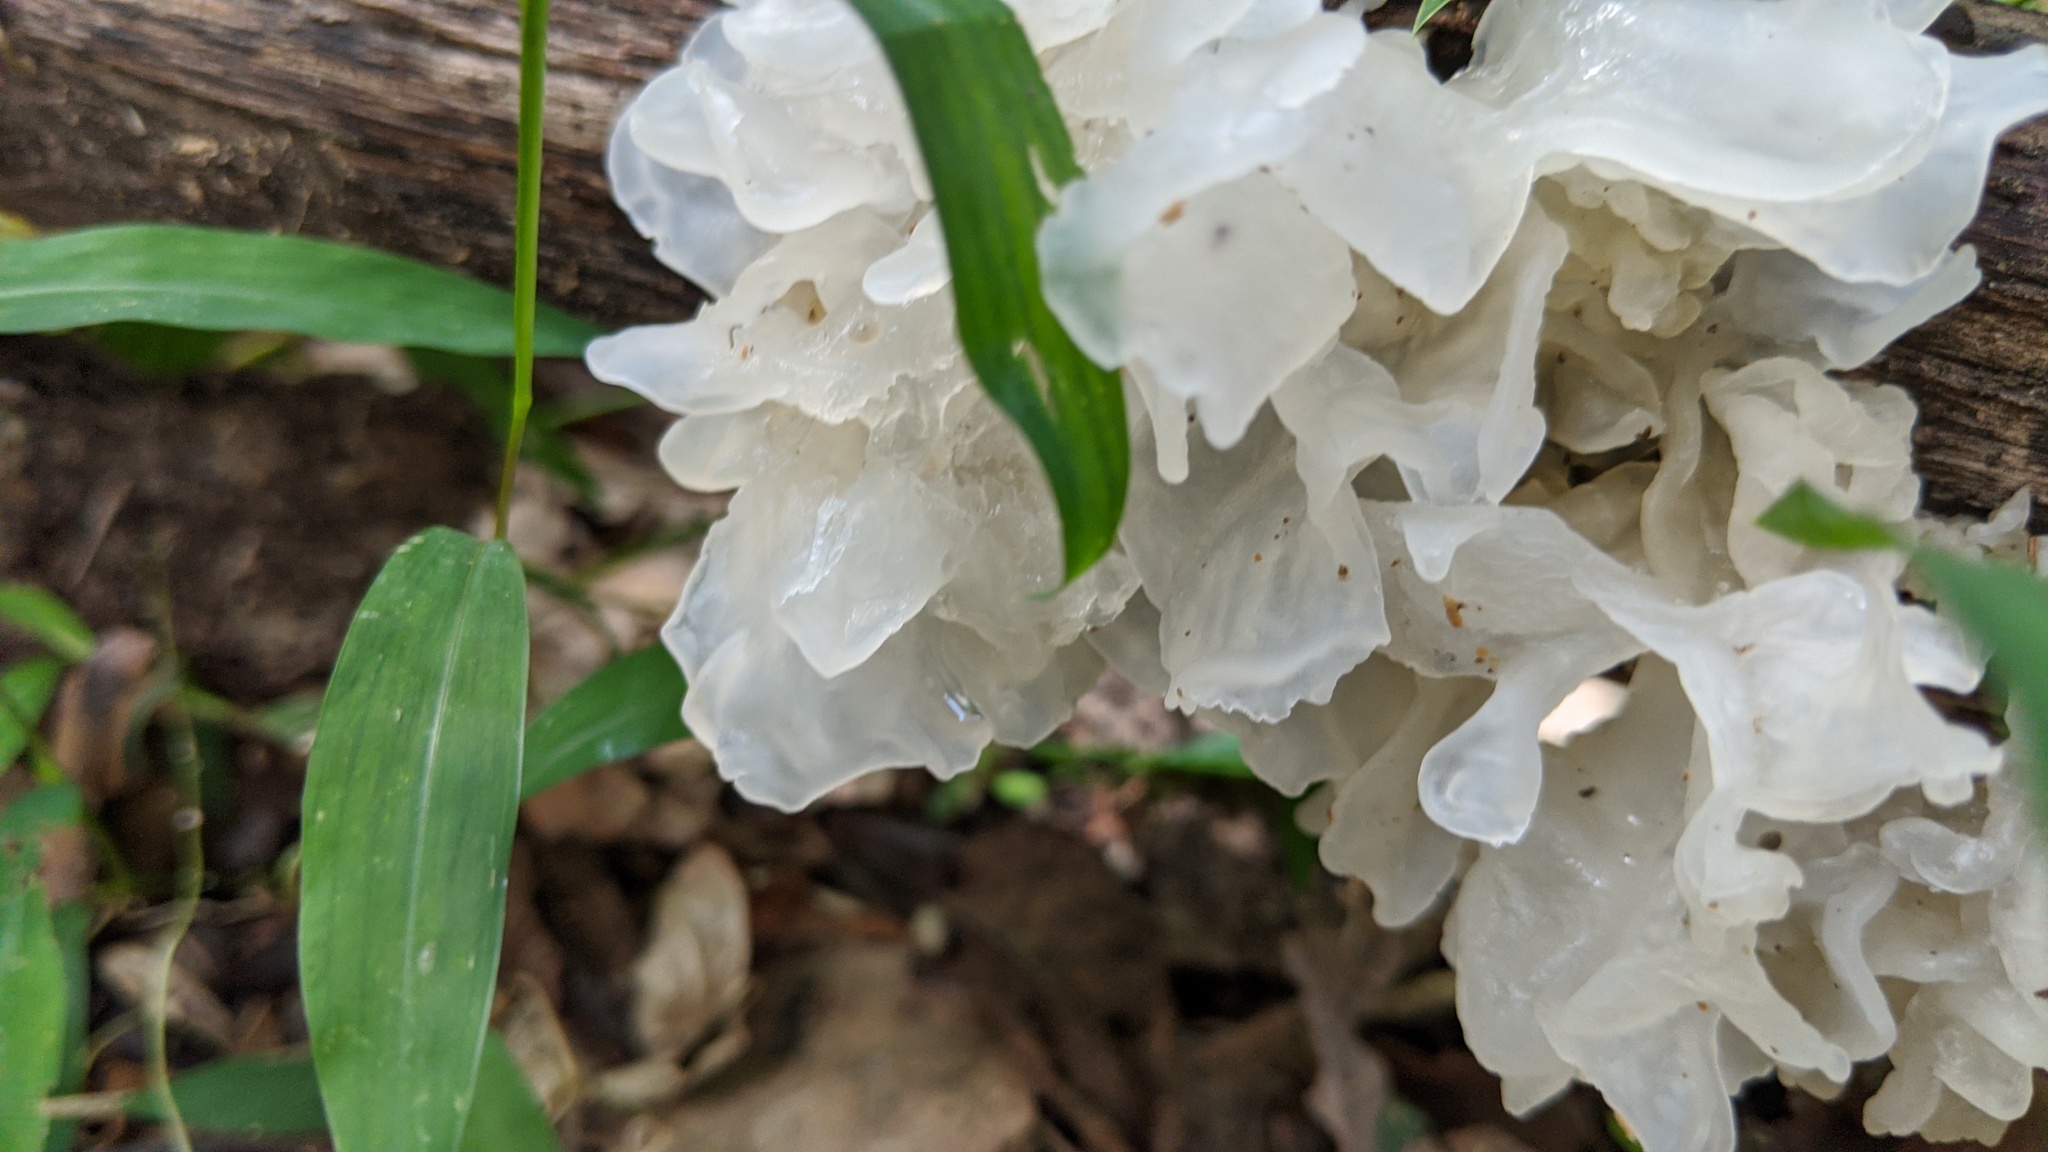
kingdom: Fungi
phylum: Basidiomycota
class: Tremellomycetes
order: Tremellales
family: Tremellaceae
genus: Tremella
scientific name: Tremella fuciformis
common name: Snow fungus
